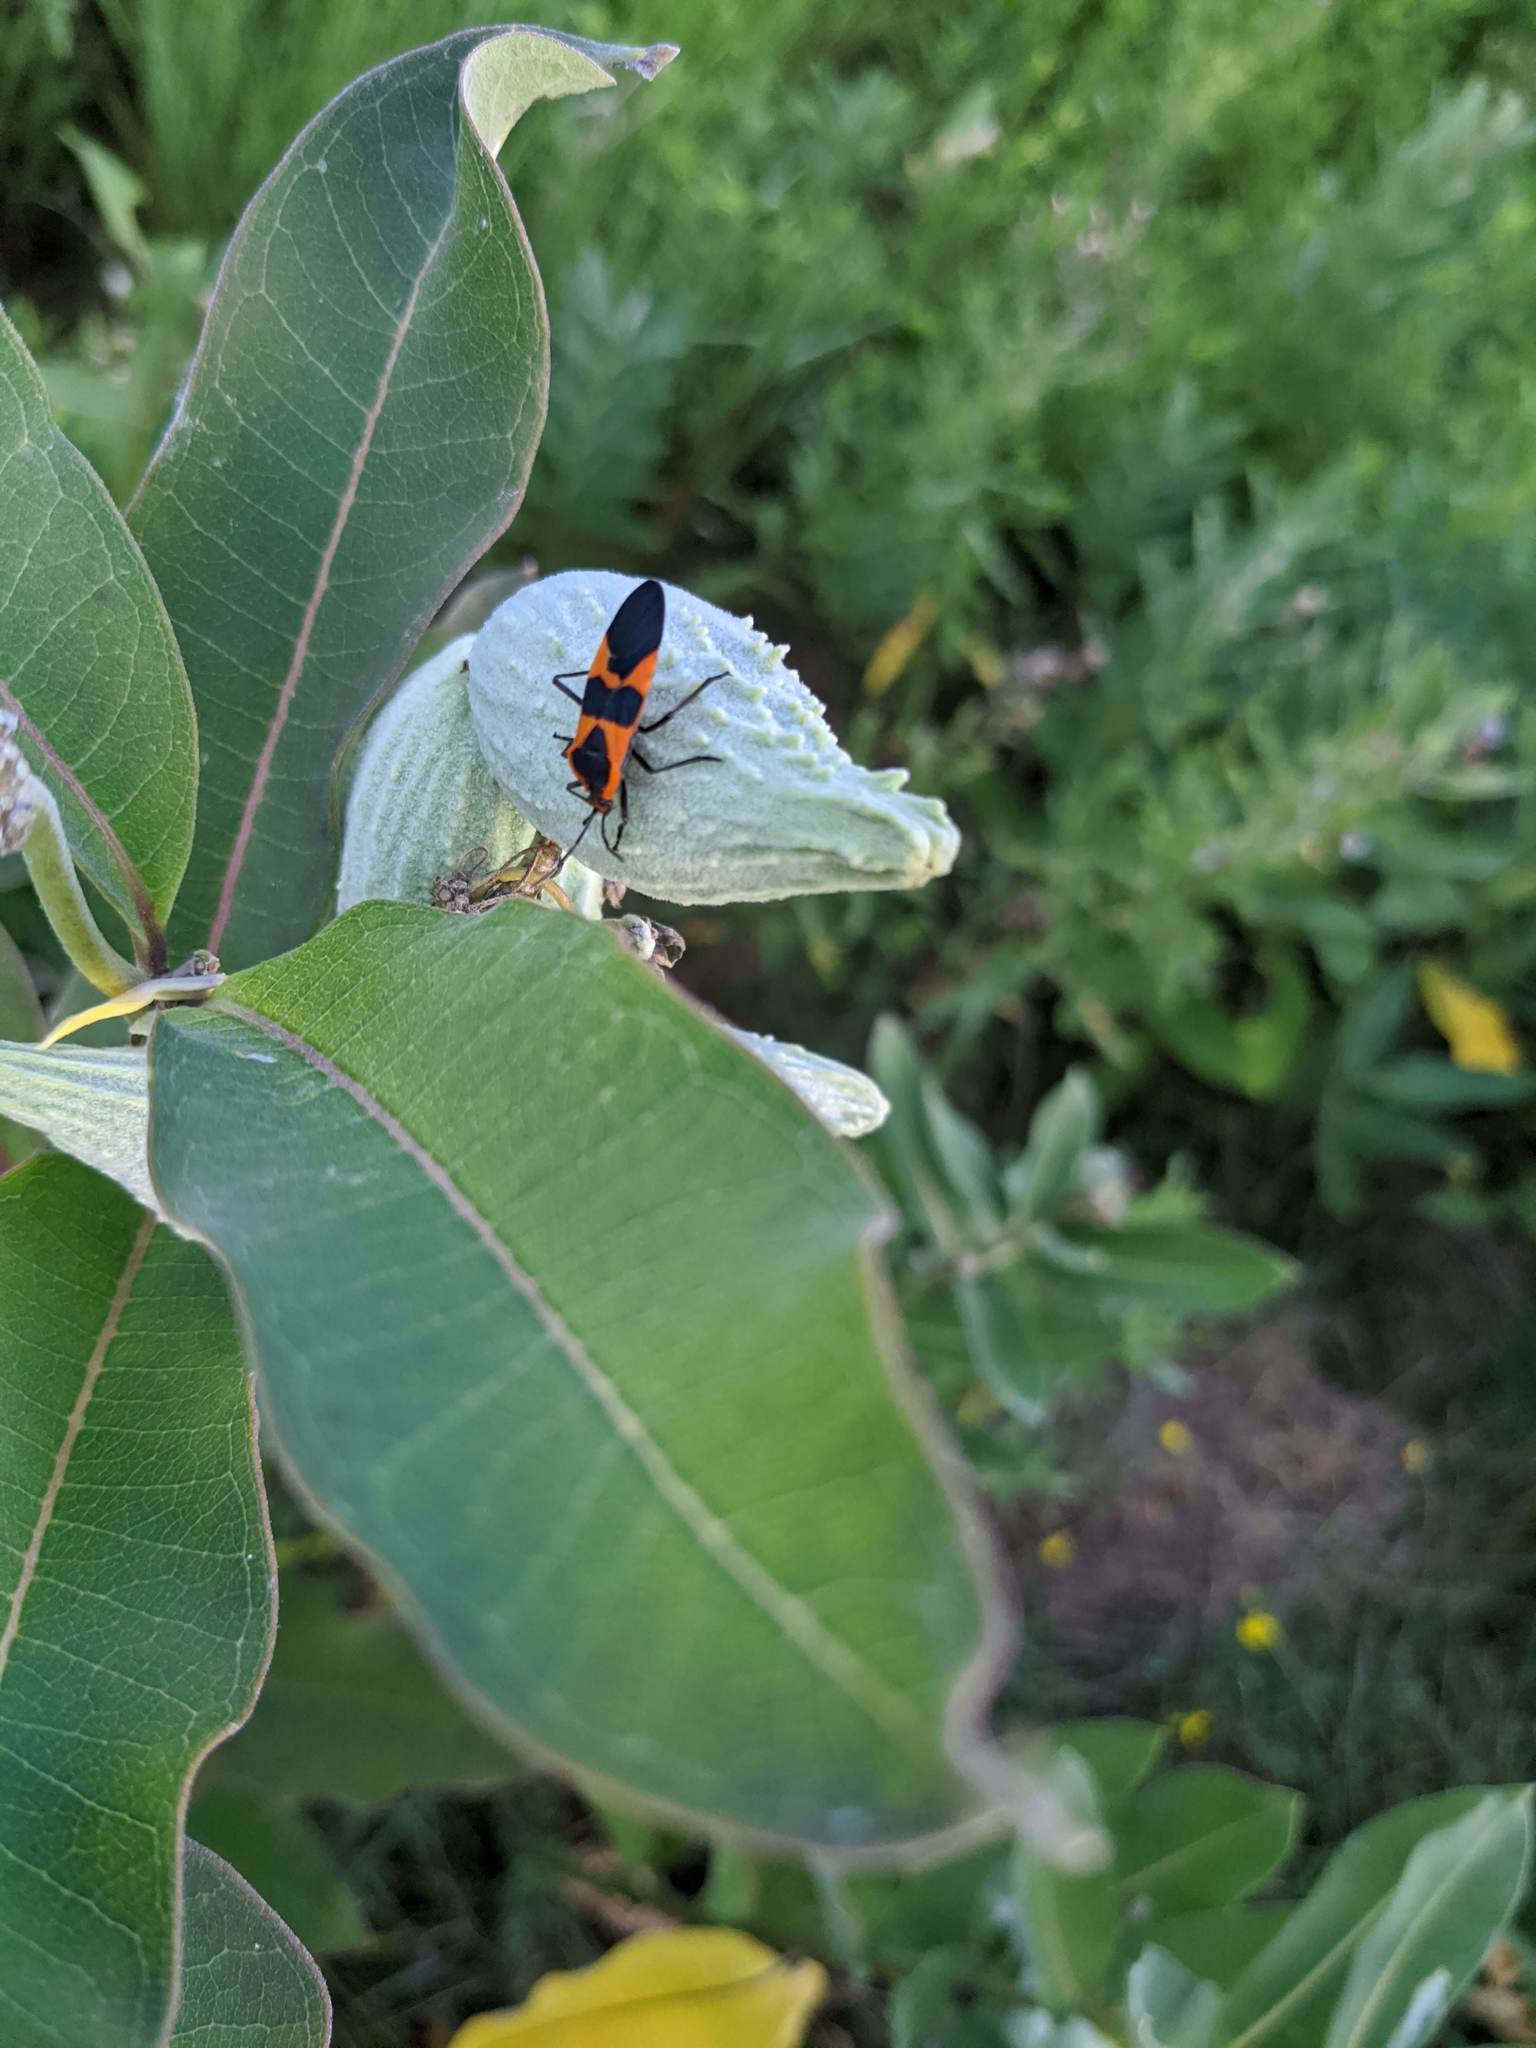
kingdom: Animalia
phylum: Arthropoda
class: Insecta
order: Hemiptera
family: Lygaeidae
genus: Oncopeltus
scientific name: Oncopeltus fasciatus
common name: Large milkweed bug
